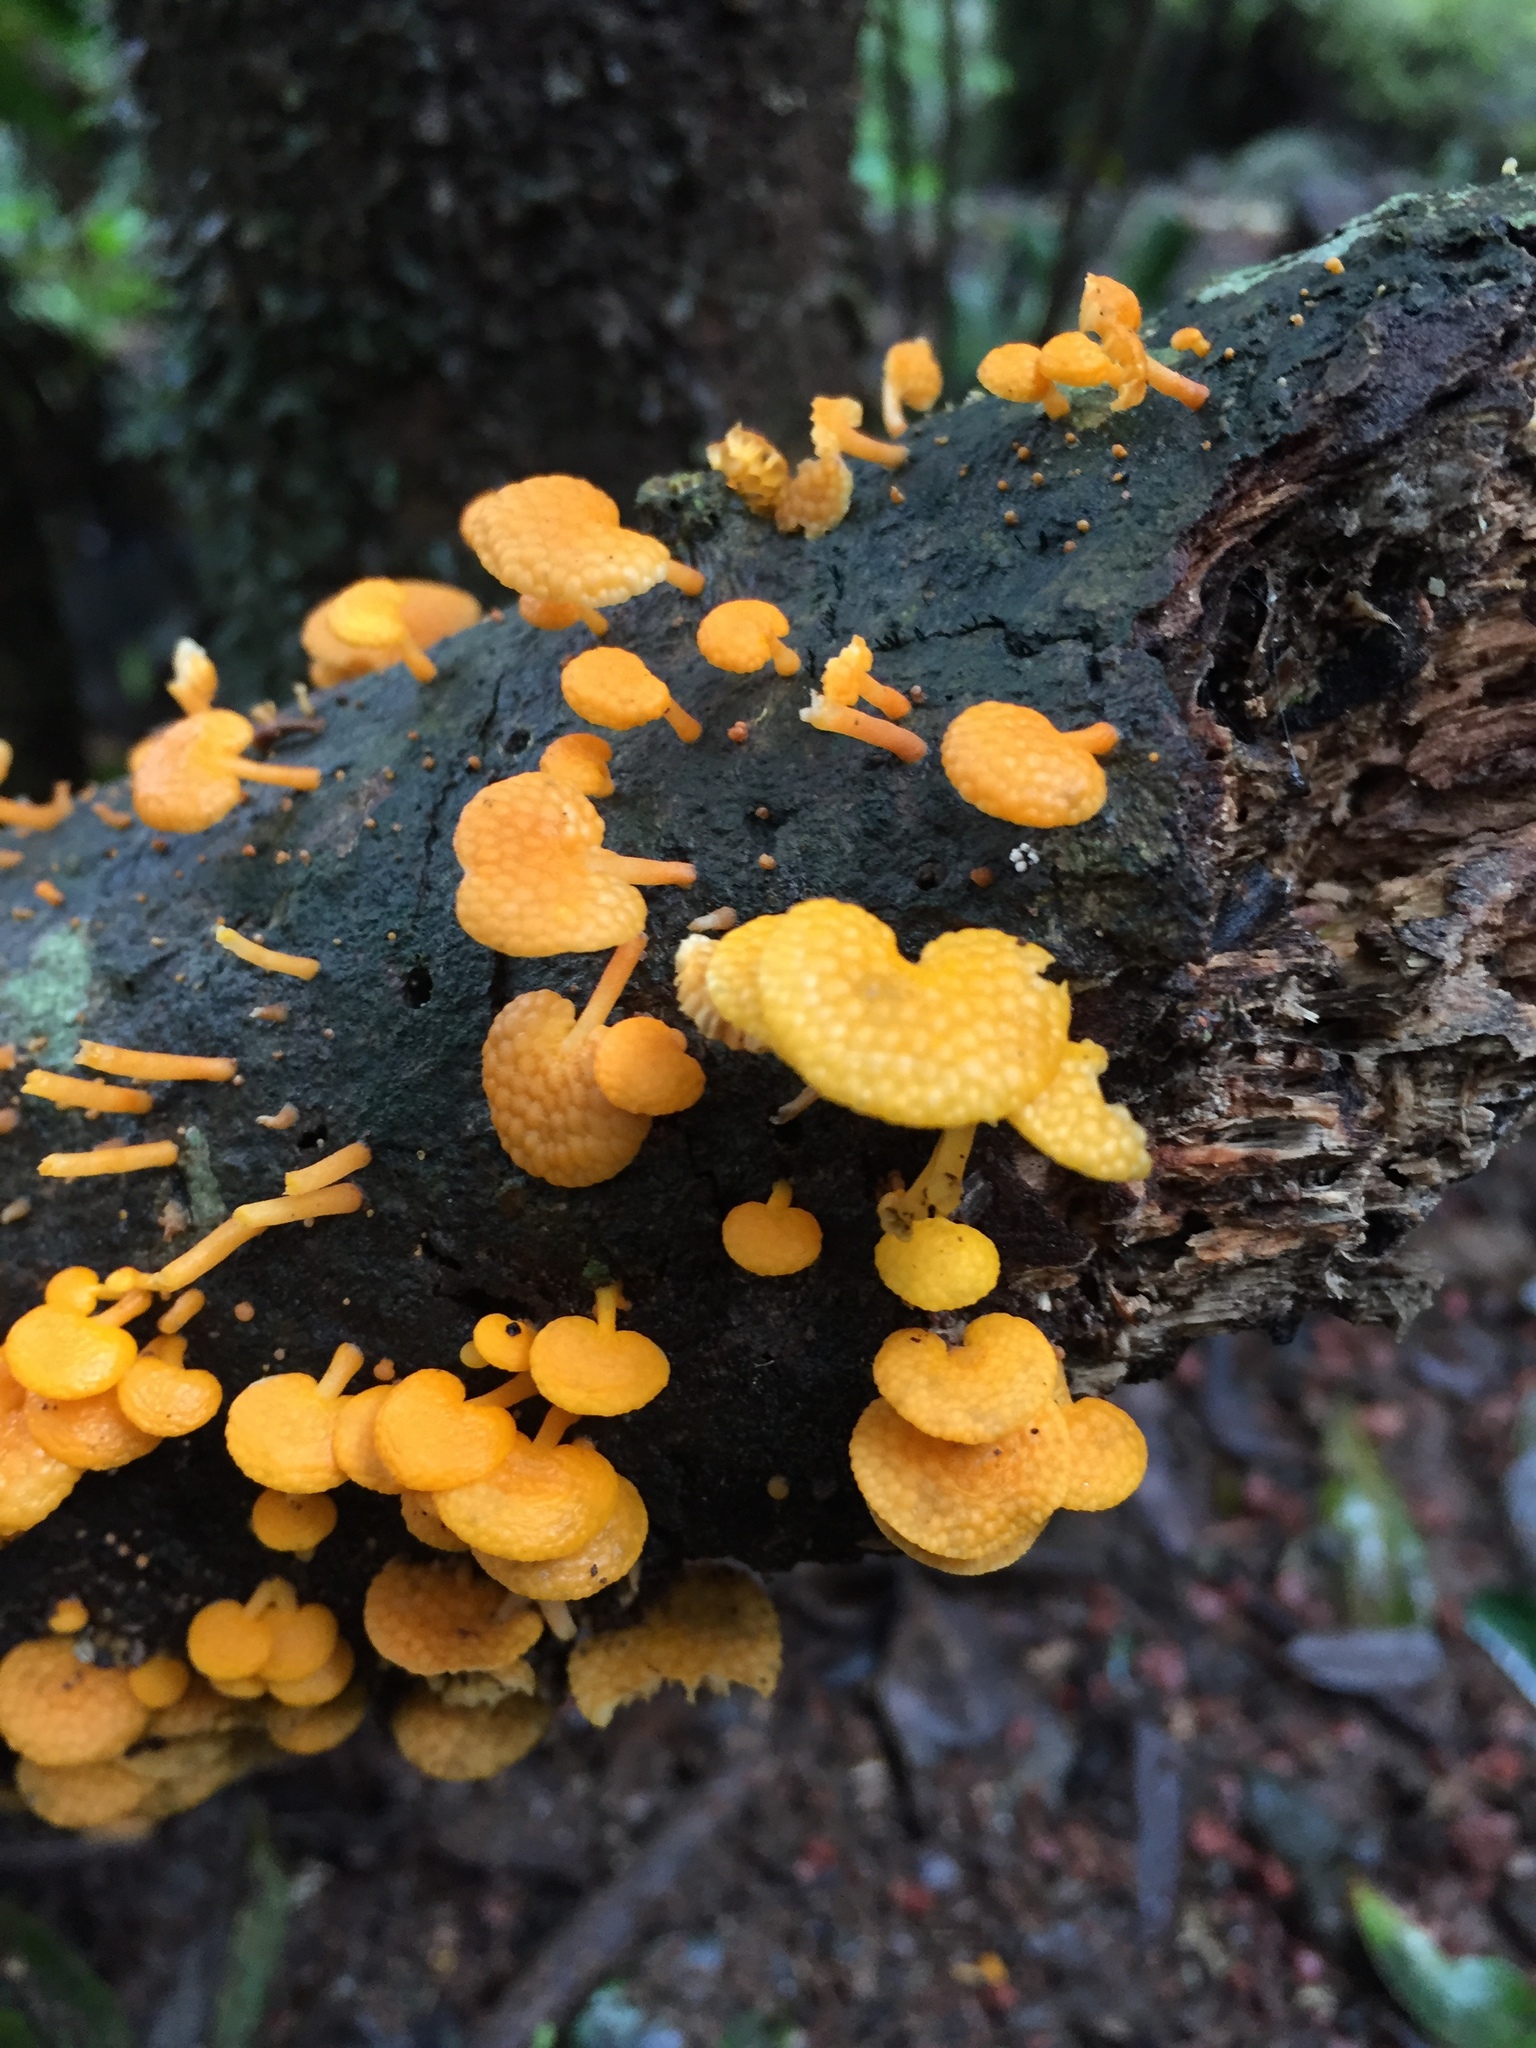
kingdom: Fungi
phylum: Basidiomycota
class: Agaricomycetes
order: Agaricales
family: Mycenaceae
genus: Favolaschia
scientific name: Favolaschia claudopus
